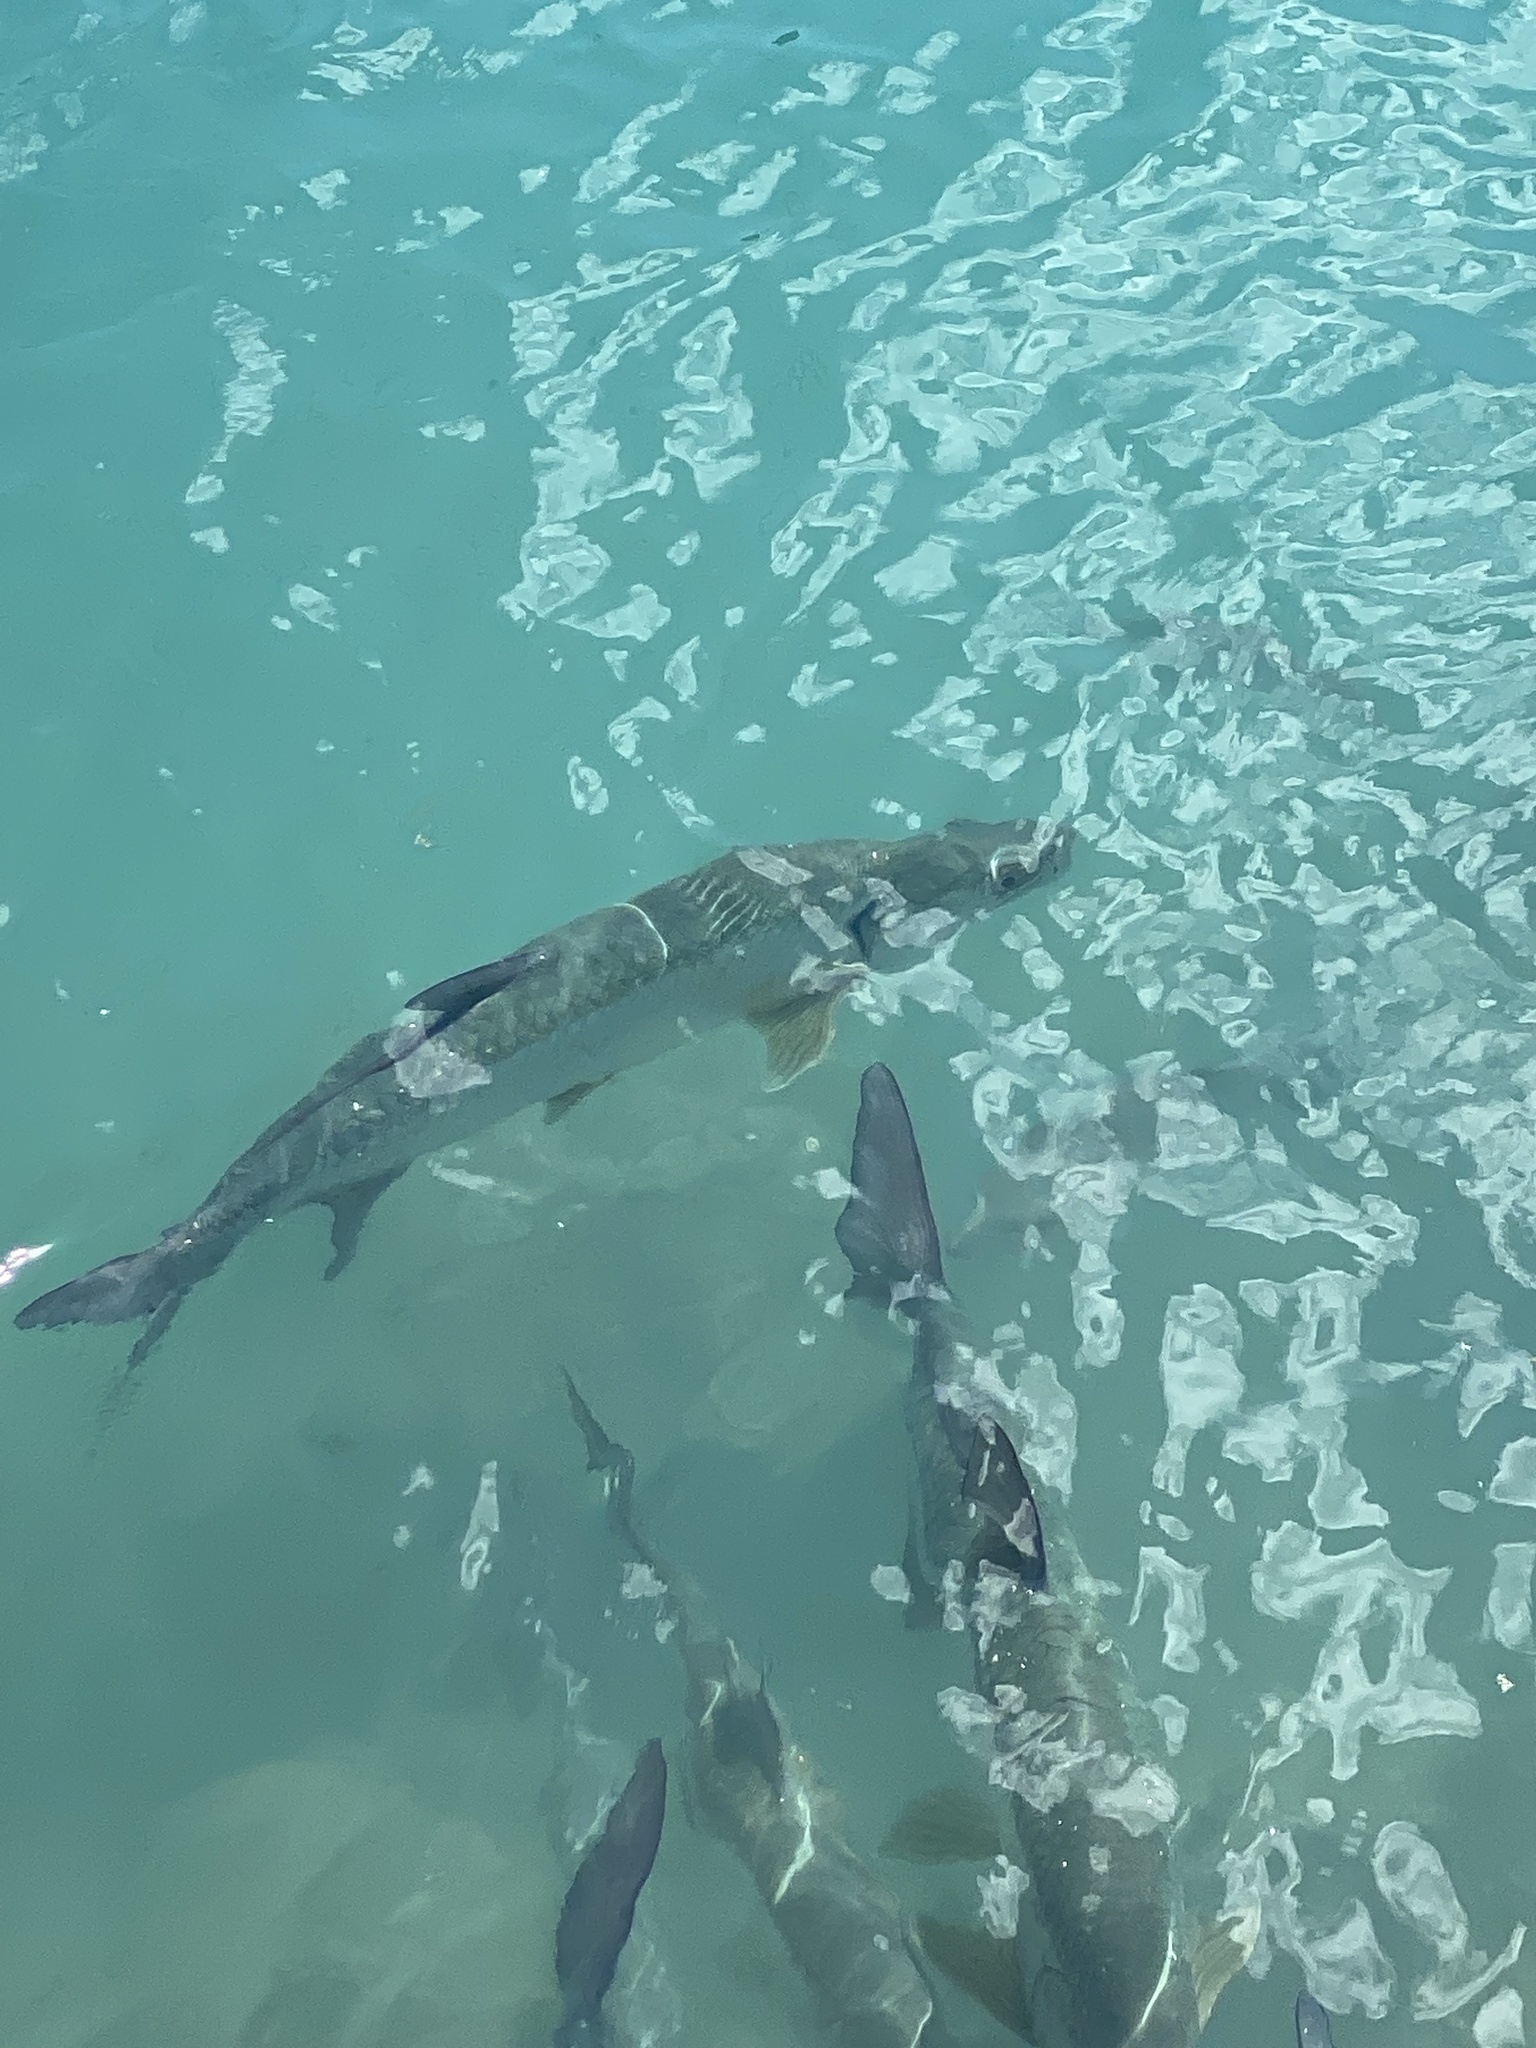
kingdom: Animalia
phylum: Chordata
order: Elopiformes
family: Megalopidae
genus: Megalops
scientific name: Megalops atlanticus
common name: Tarpon
